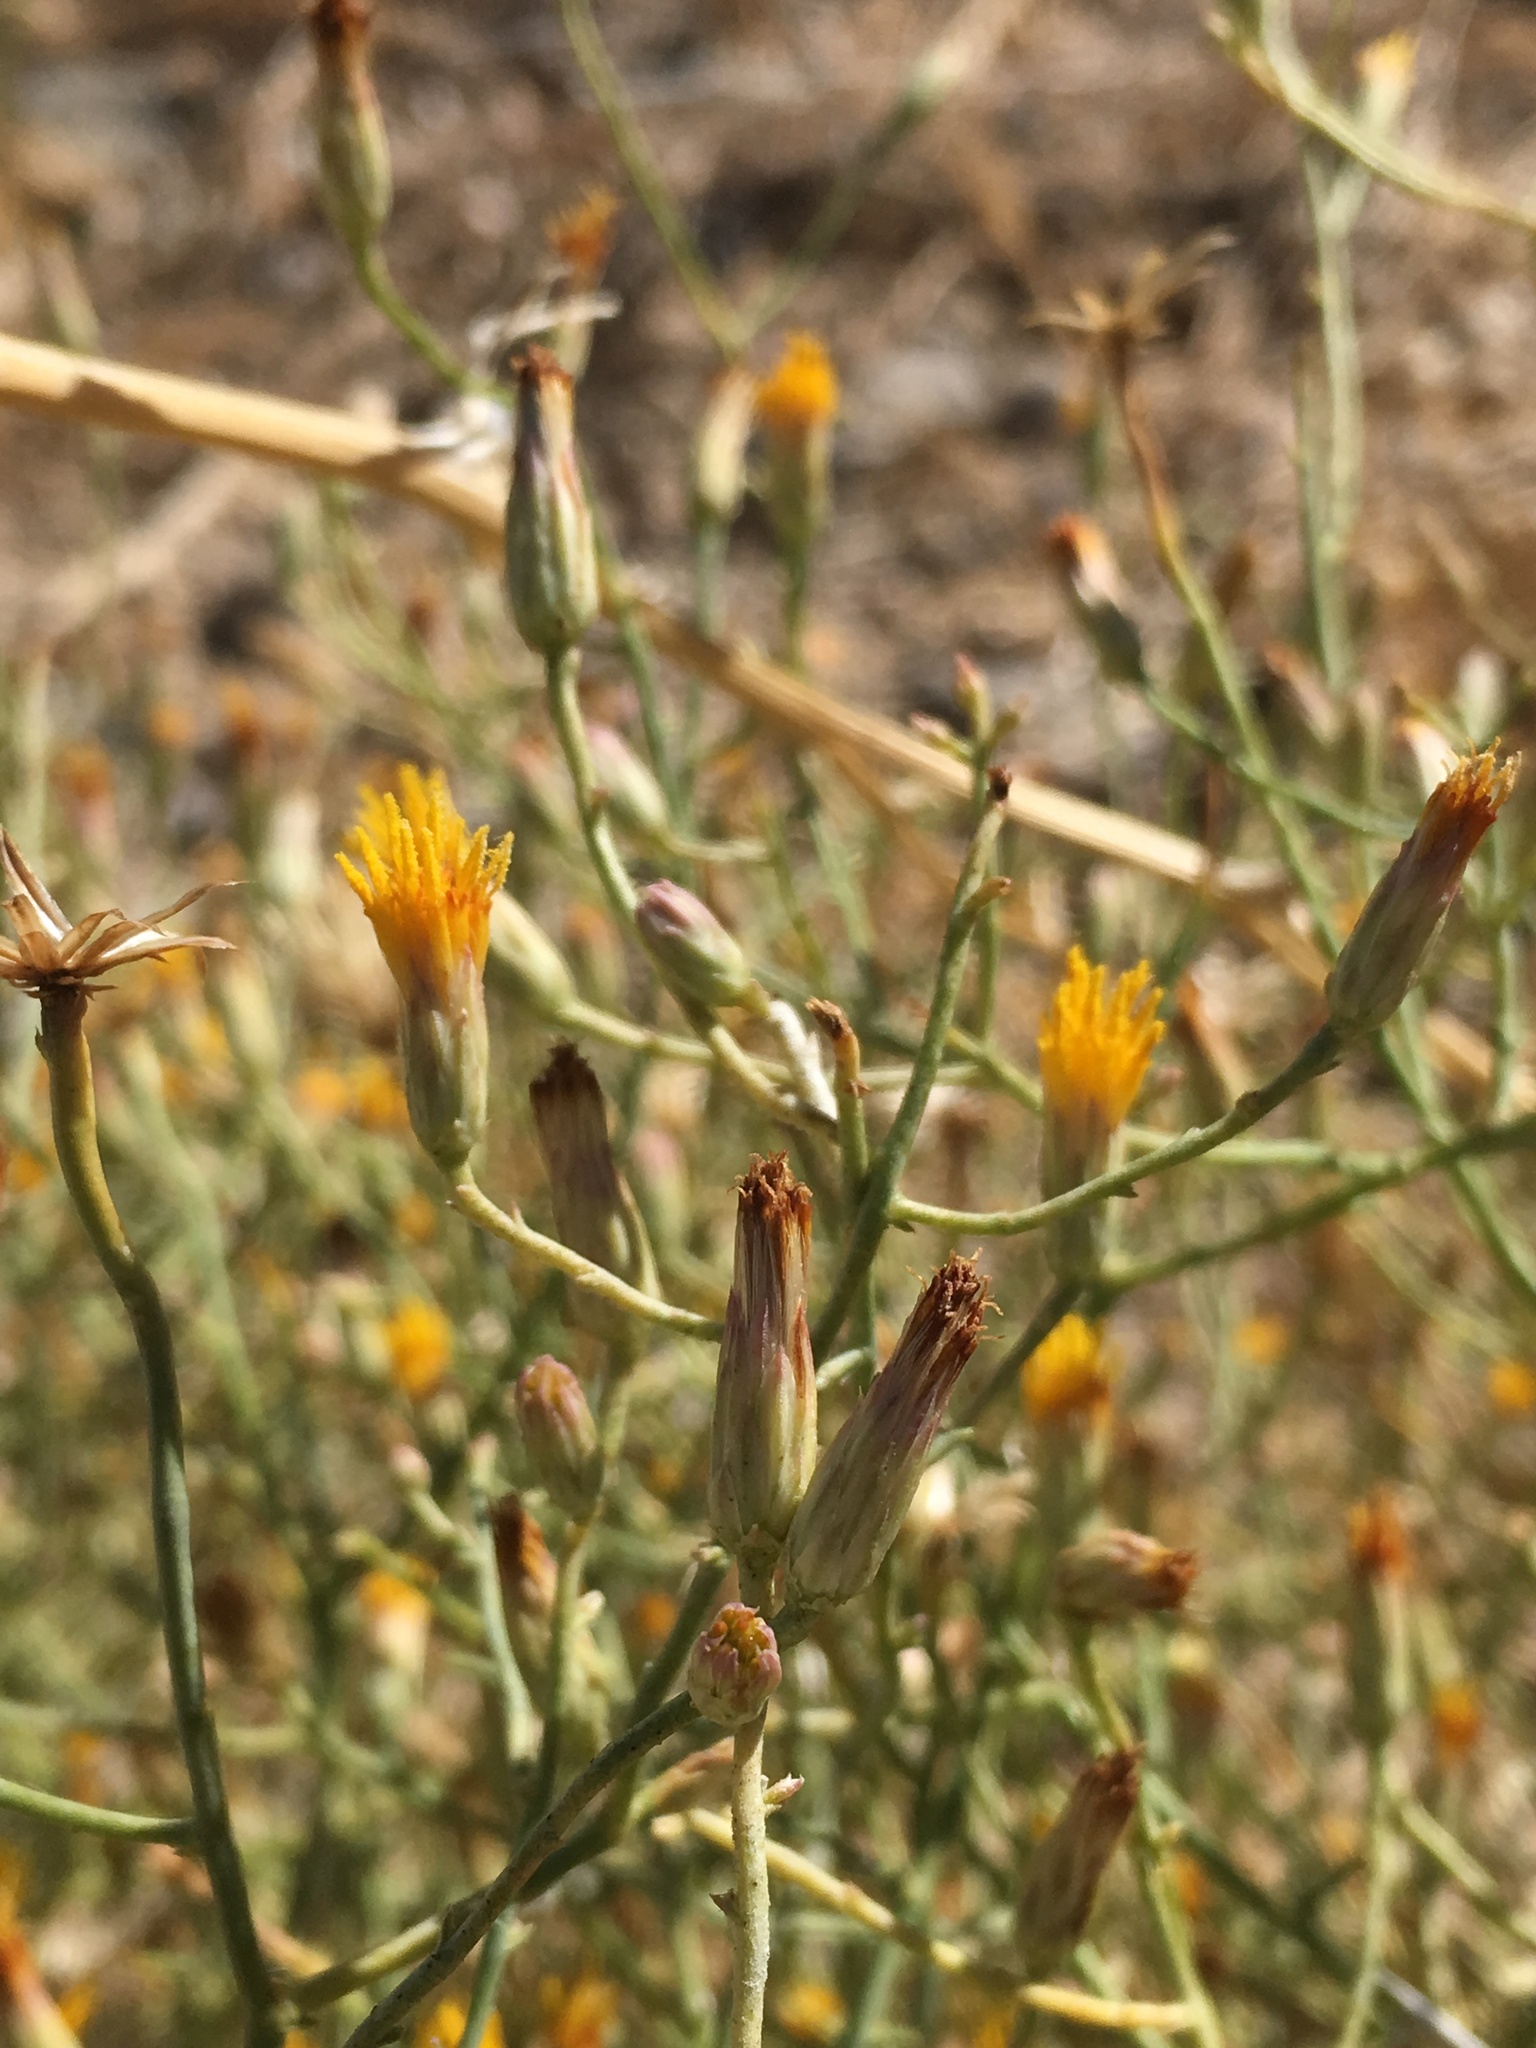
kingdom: Plantae
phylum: Tracheophyta
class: Magnoliopsida
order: Asterales
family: Asteraceae
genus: Leucosyris
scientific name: Leucosyris carnosa
